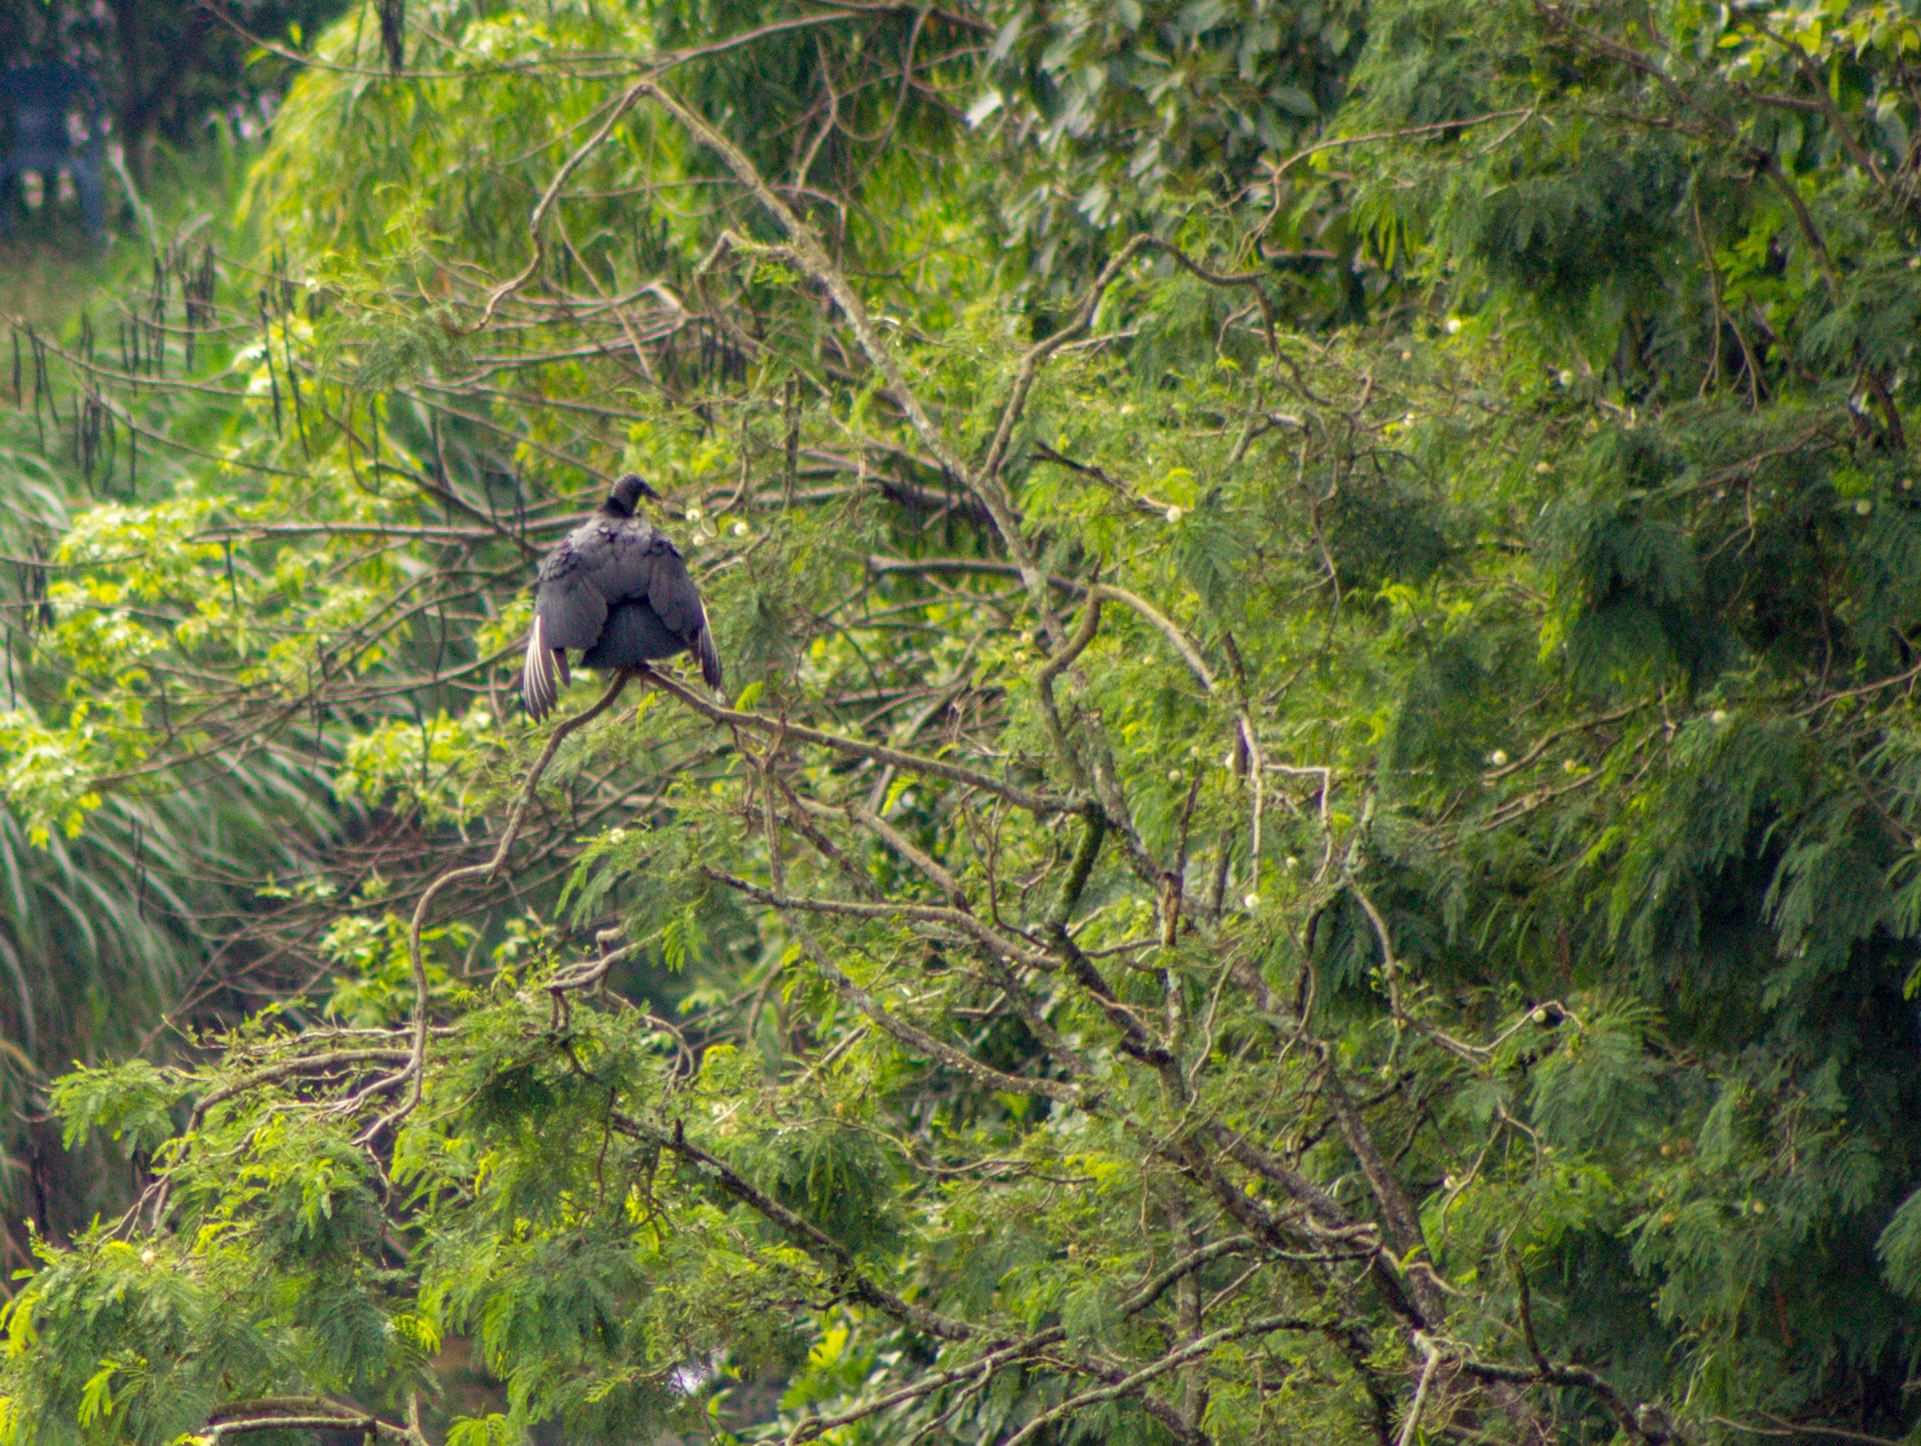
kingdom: Animalia
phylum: Chordata
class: Aves
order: Accipitriformes
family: Cathartidae
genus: Coragyps
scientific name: Coragyps atratus
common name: Black vulture
